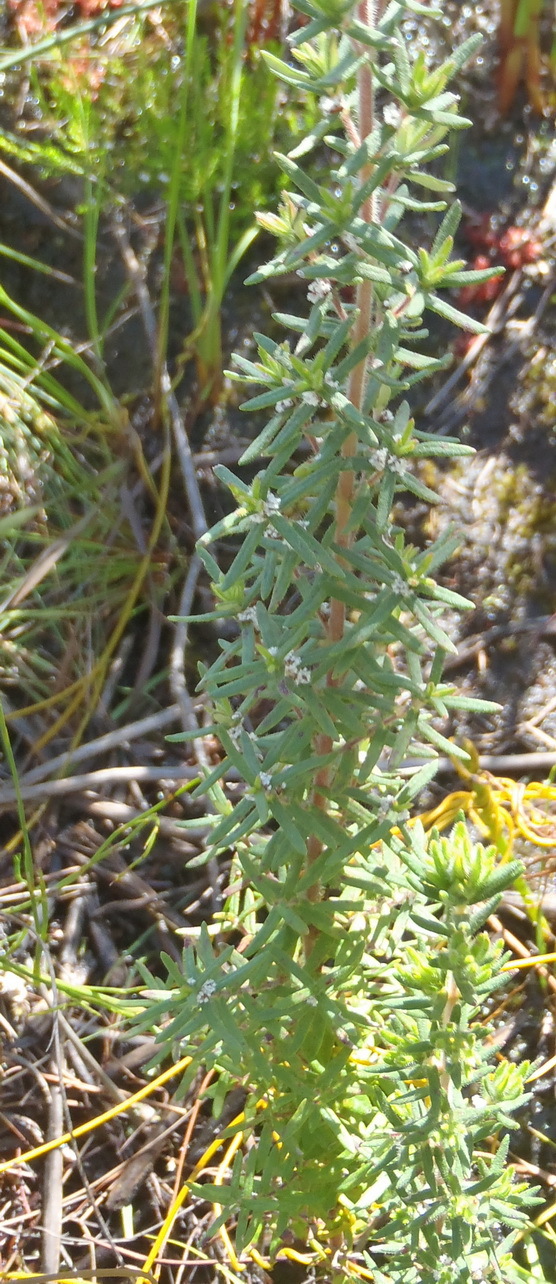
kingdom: Plantae
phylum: Tracheophyta
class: Magnoliopsida
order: Cornales
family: Grubbiaceae
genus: Grubbia
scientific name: Grubbia rosmarinifolia
